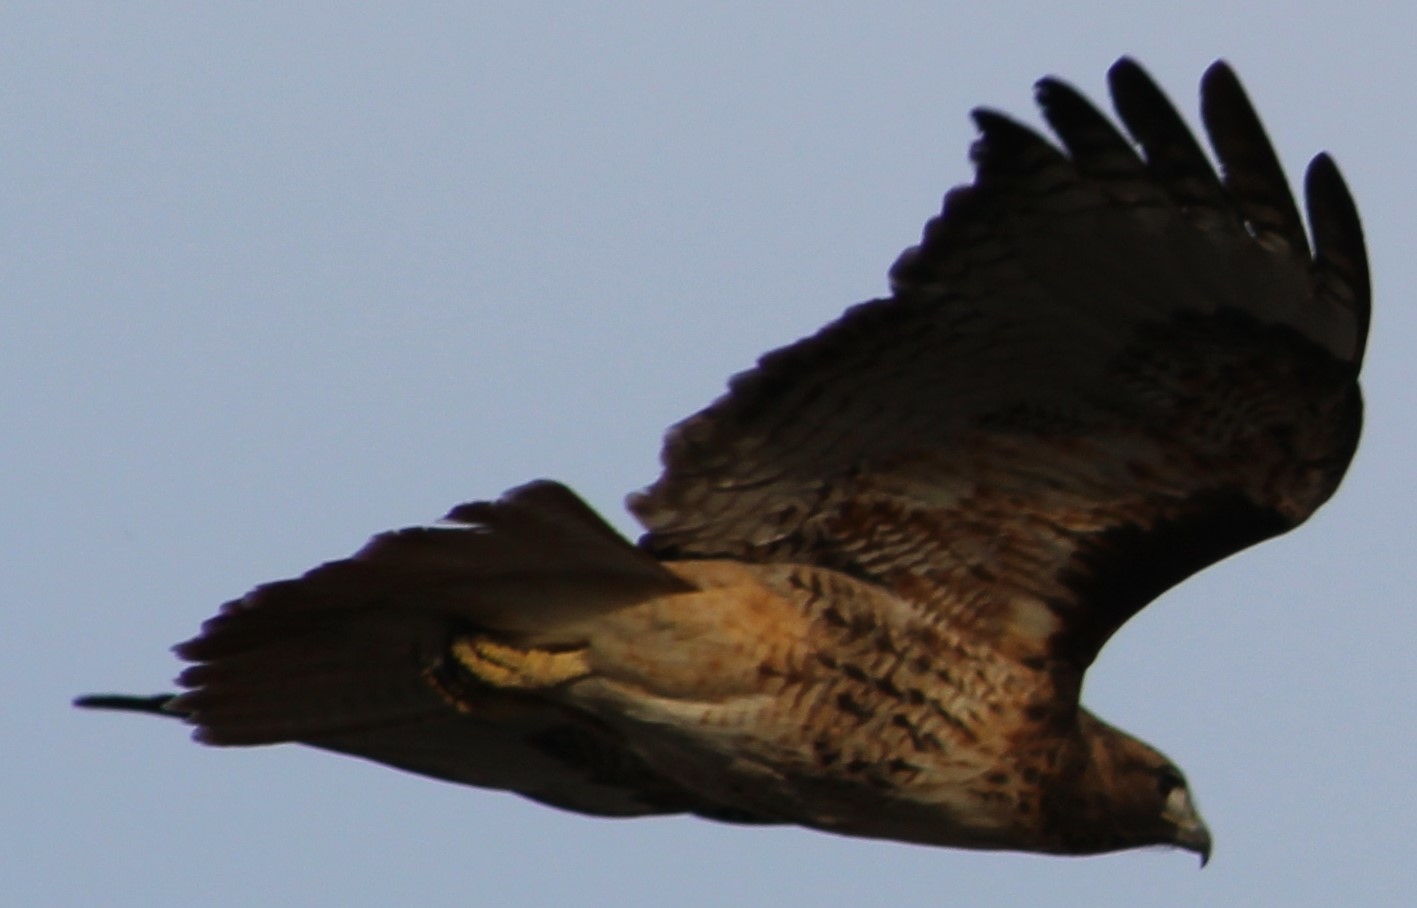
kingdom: Animalia
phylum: Chordata
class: Aves
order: Accipitriformes
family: Accipitridae
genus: Buteo
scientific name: Buteo jamaicensis
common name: Red-tailed hawk
